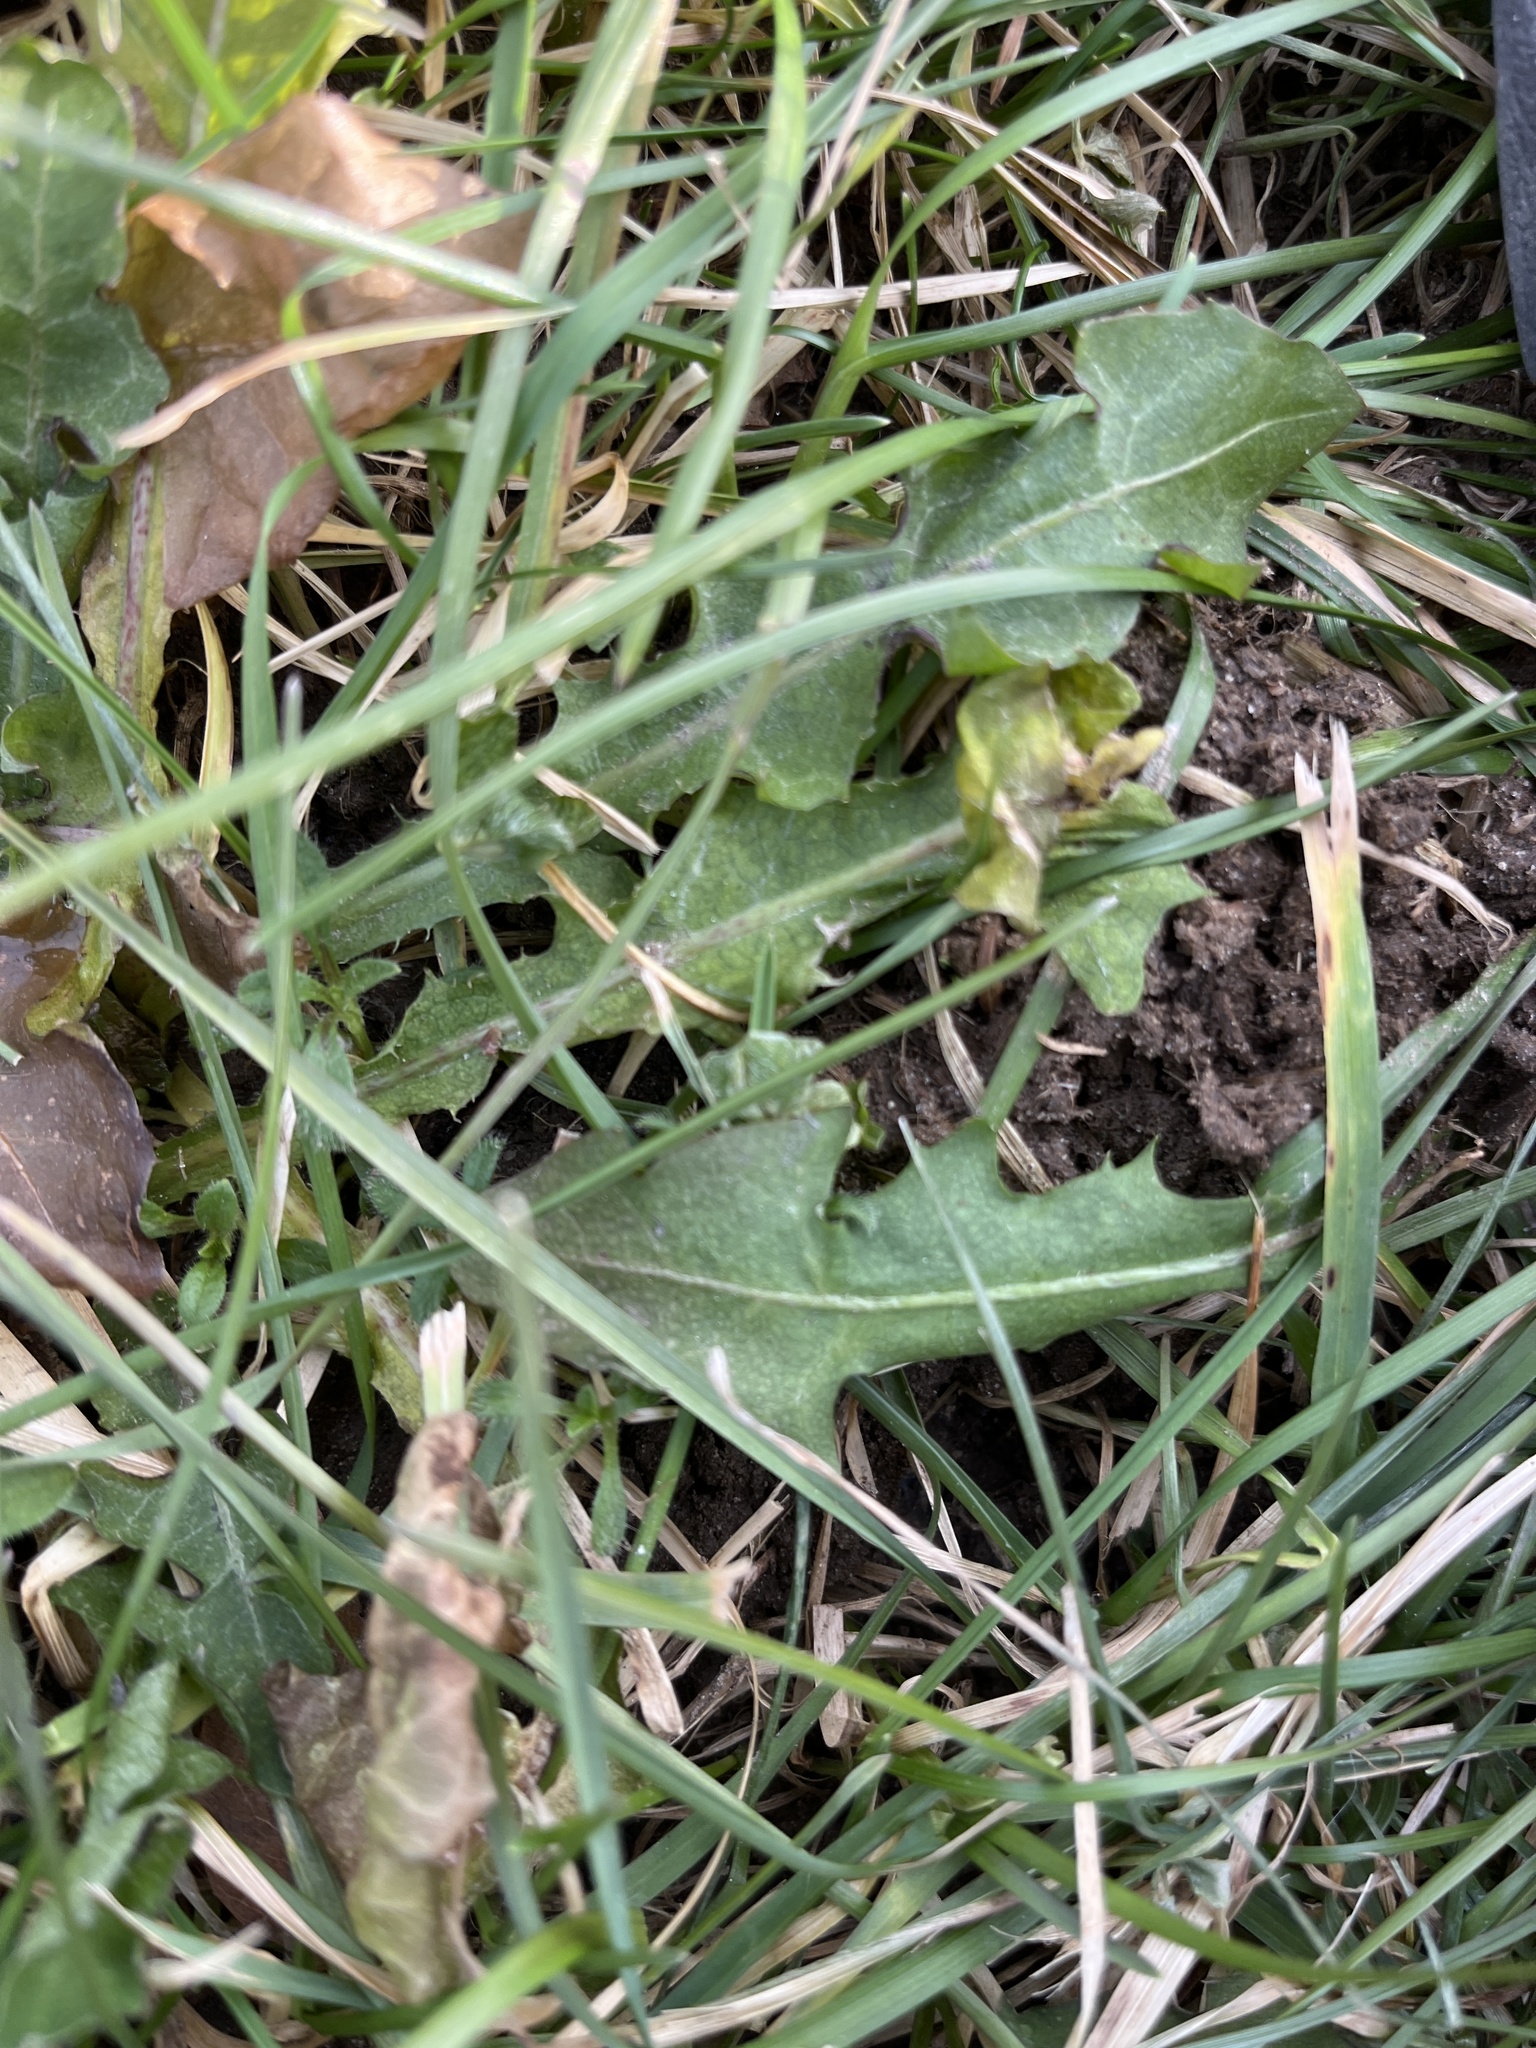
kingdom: Plantae
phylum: Tracheophyta
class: Magnoliopsida
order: Asterales
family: Asteraceae
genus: Taraxacum
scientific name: Taraxacum officinale
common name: Common dandelion
